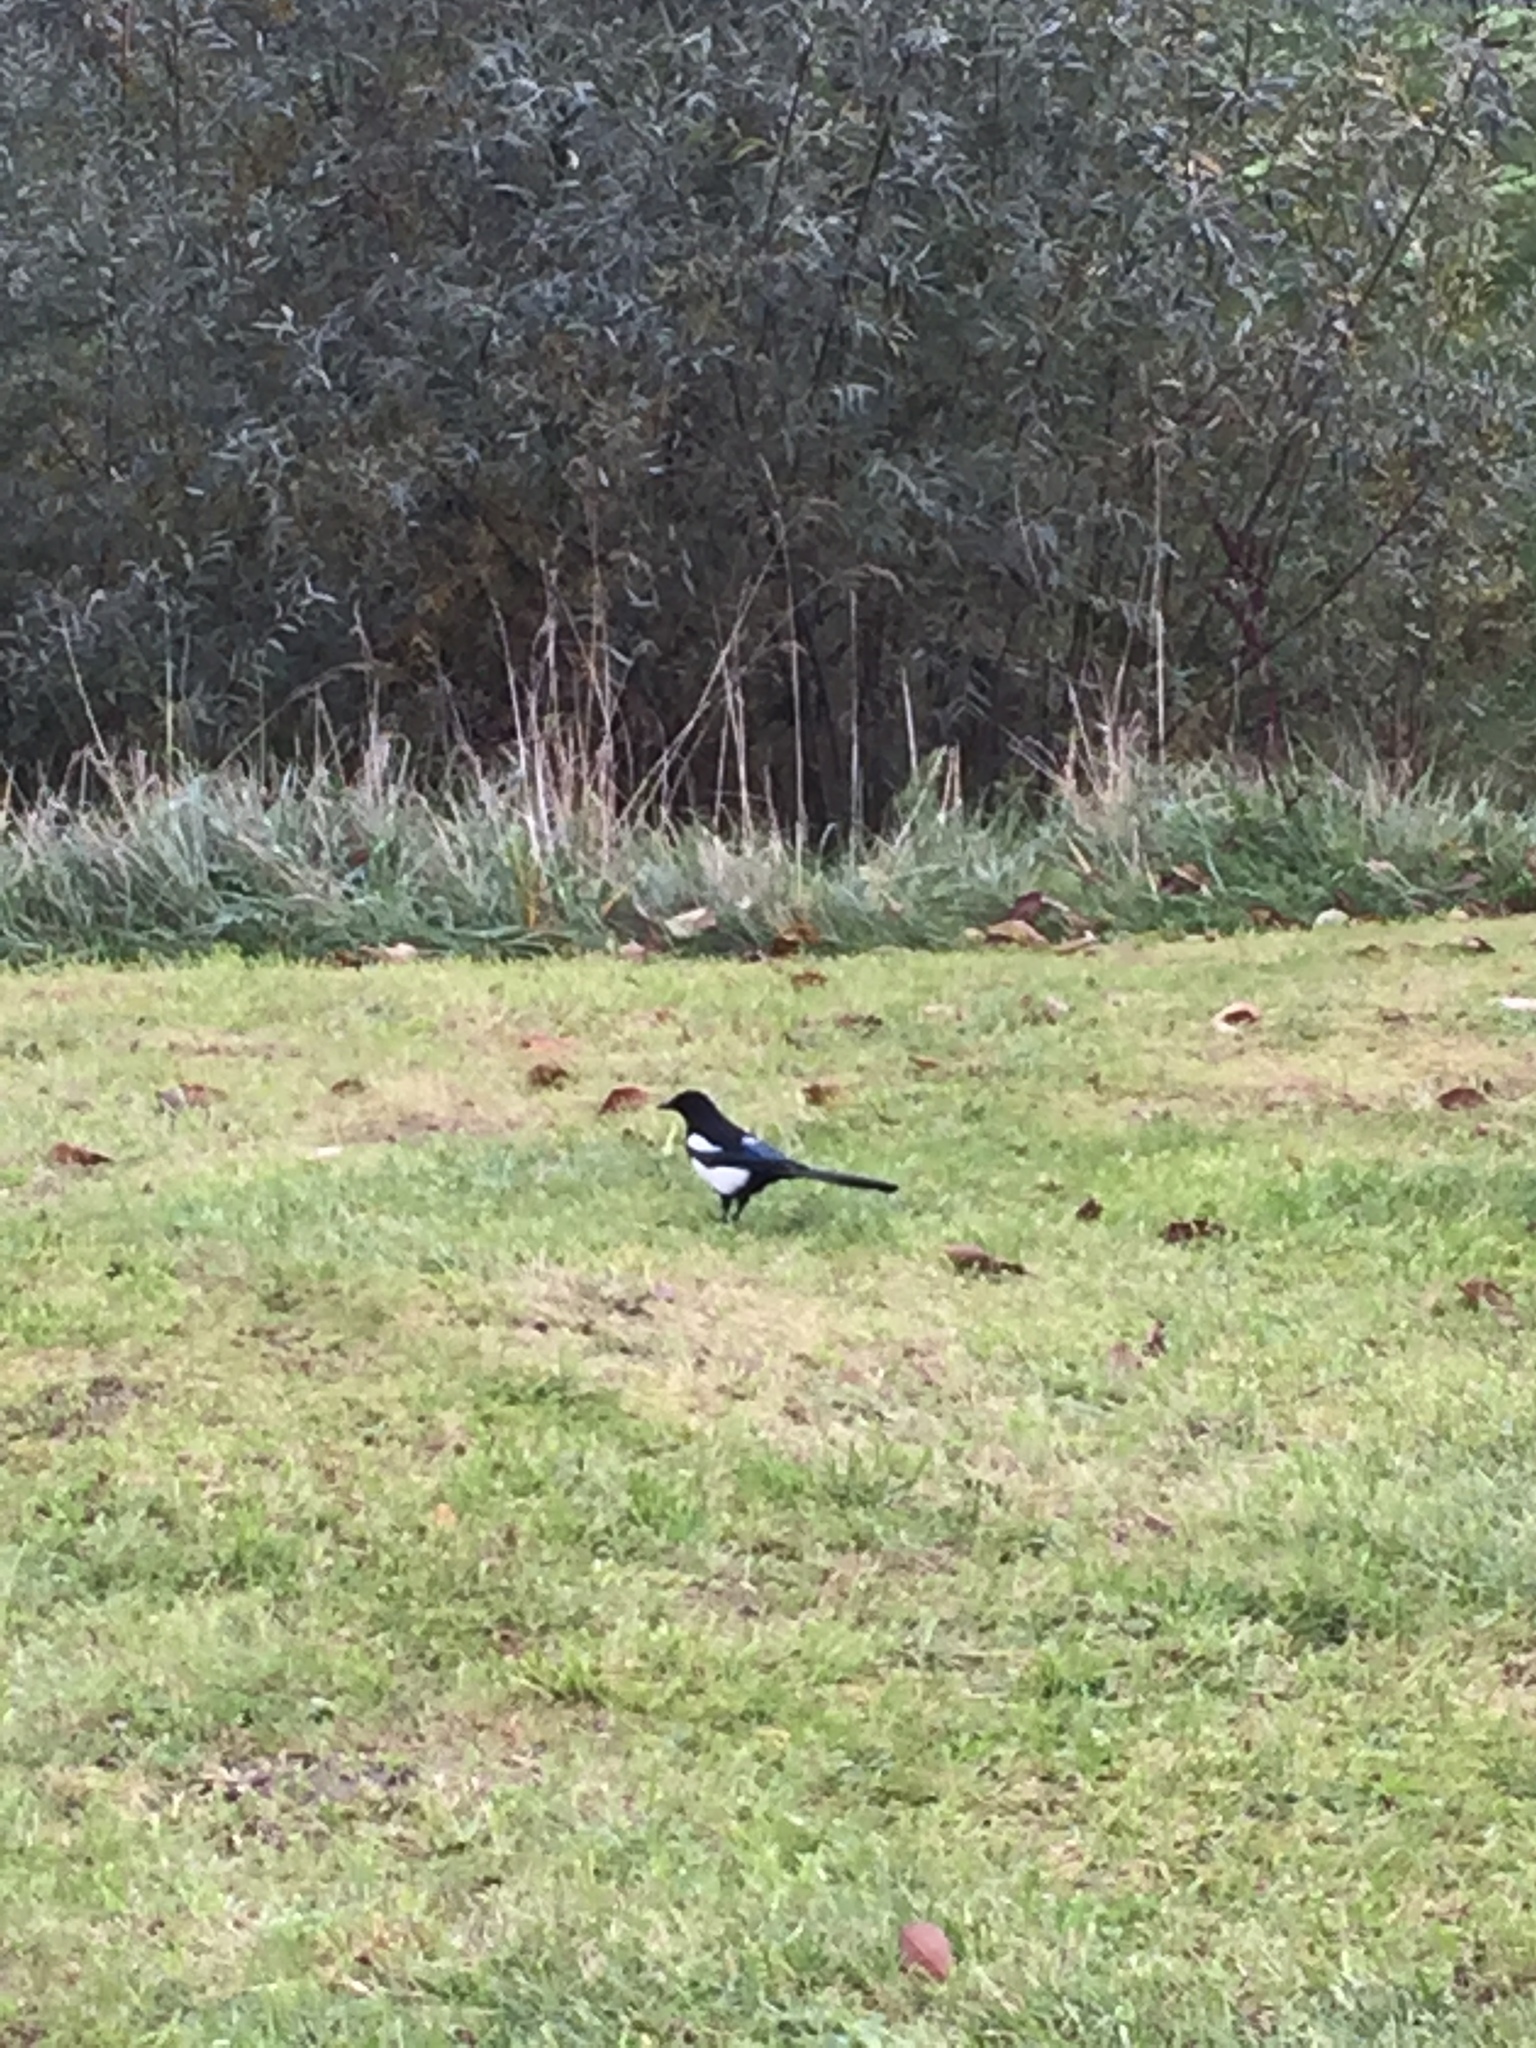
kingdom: Animalia
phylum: Chordata
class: Aves
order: Passeriformes
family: Corvidae
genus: Pica
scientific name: Pica pica
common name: Eurasian magpie
